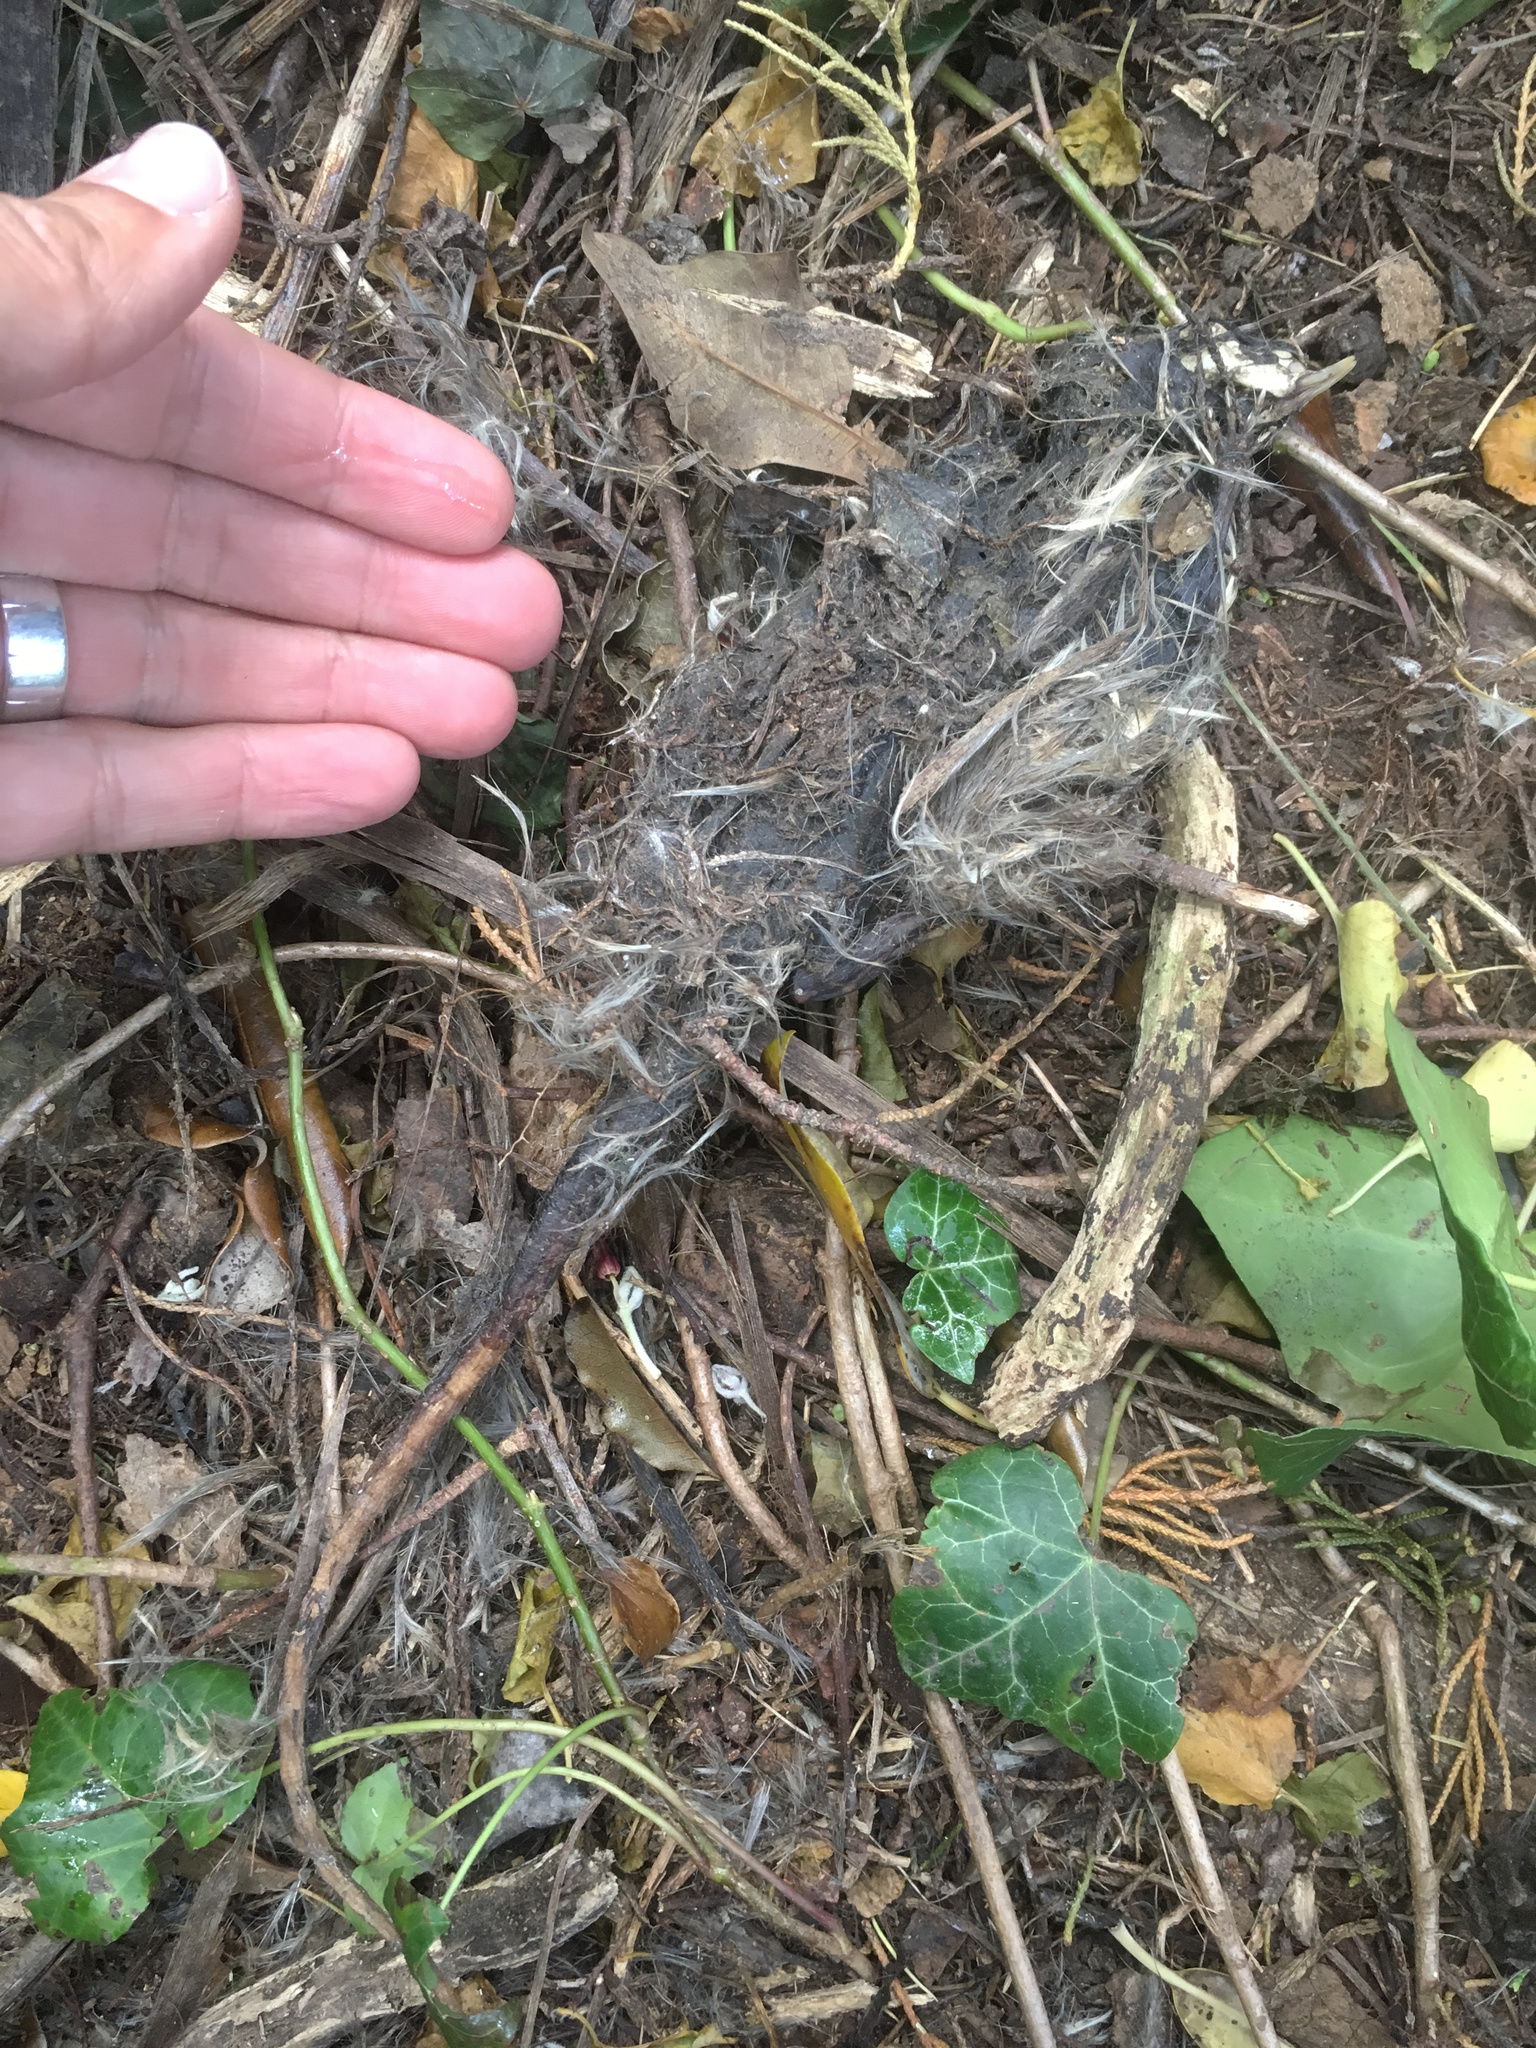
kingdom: Animalia
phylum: Chordata
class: Mammalia
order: Rodentia
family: Muridae
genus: Rattus
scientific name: Rattus rattus
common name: Black rat
